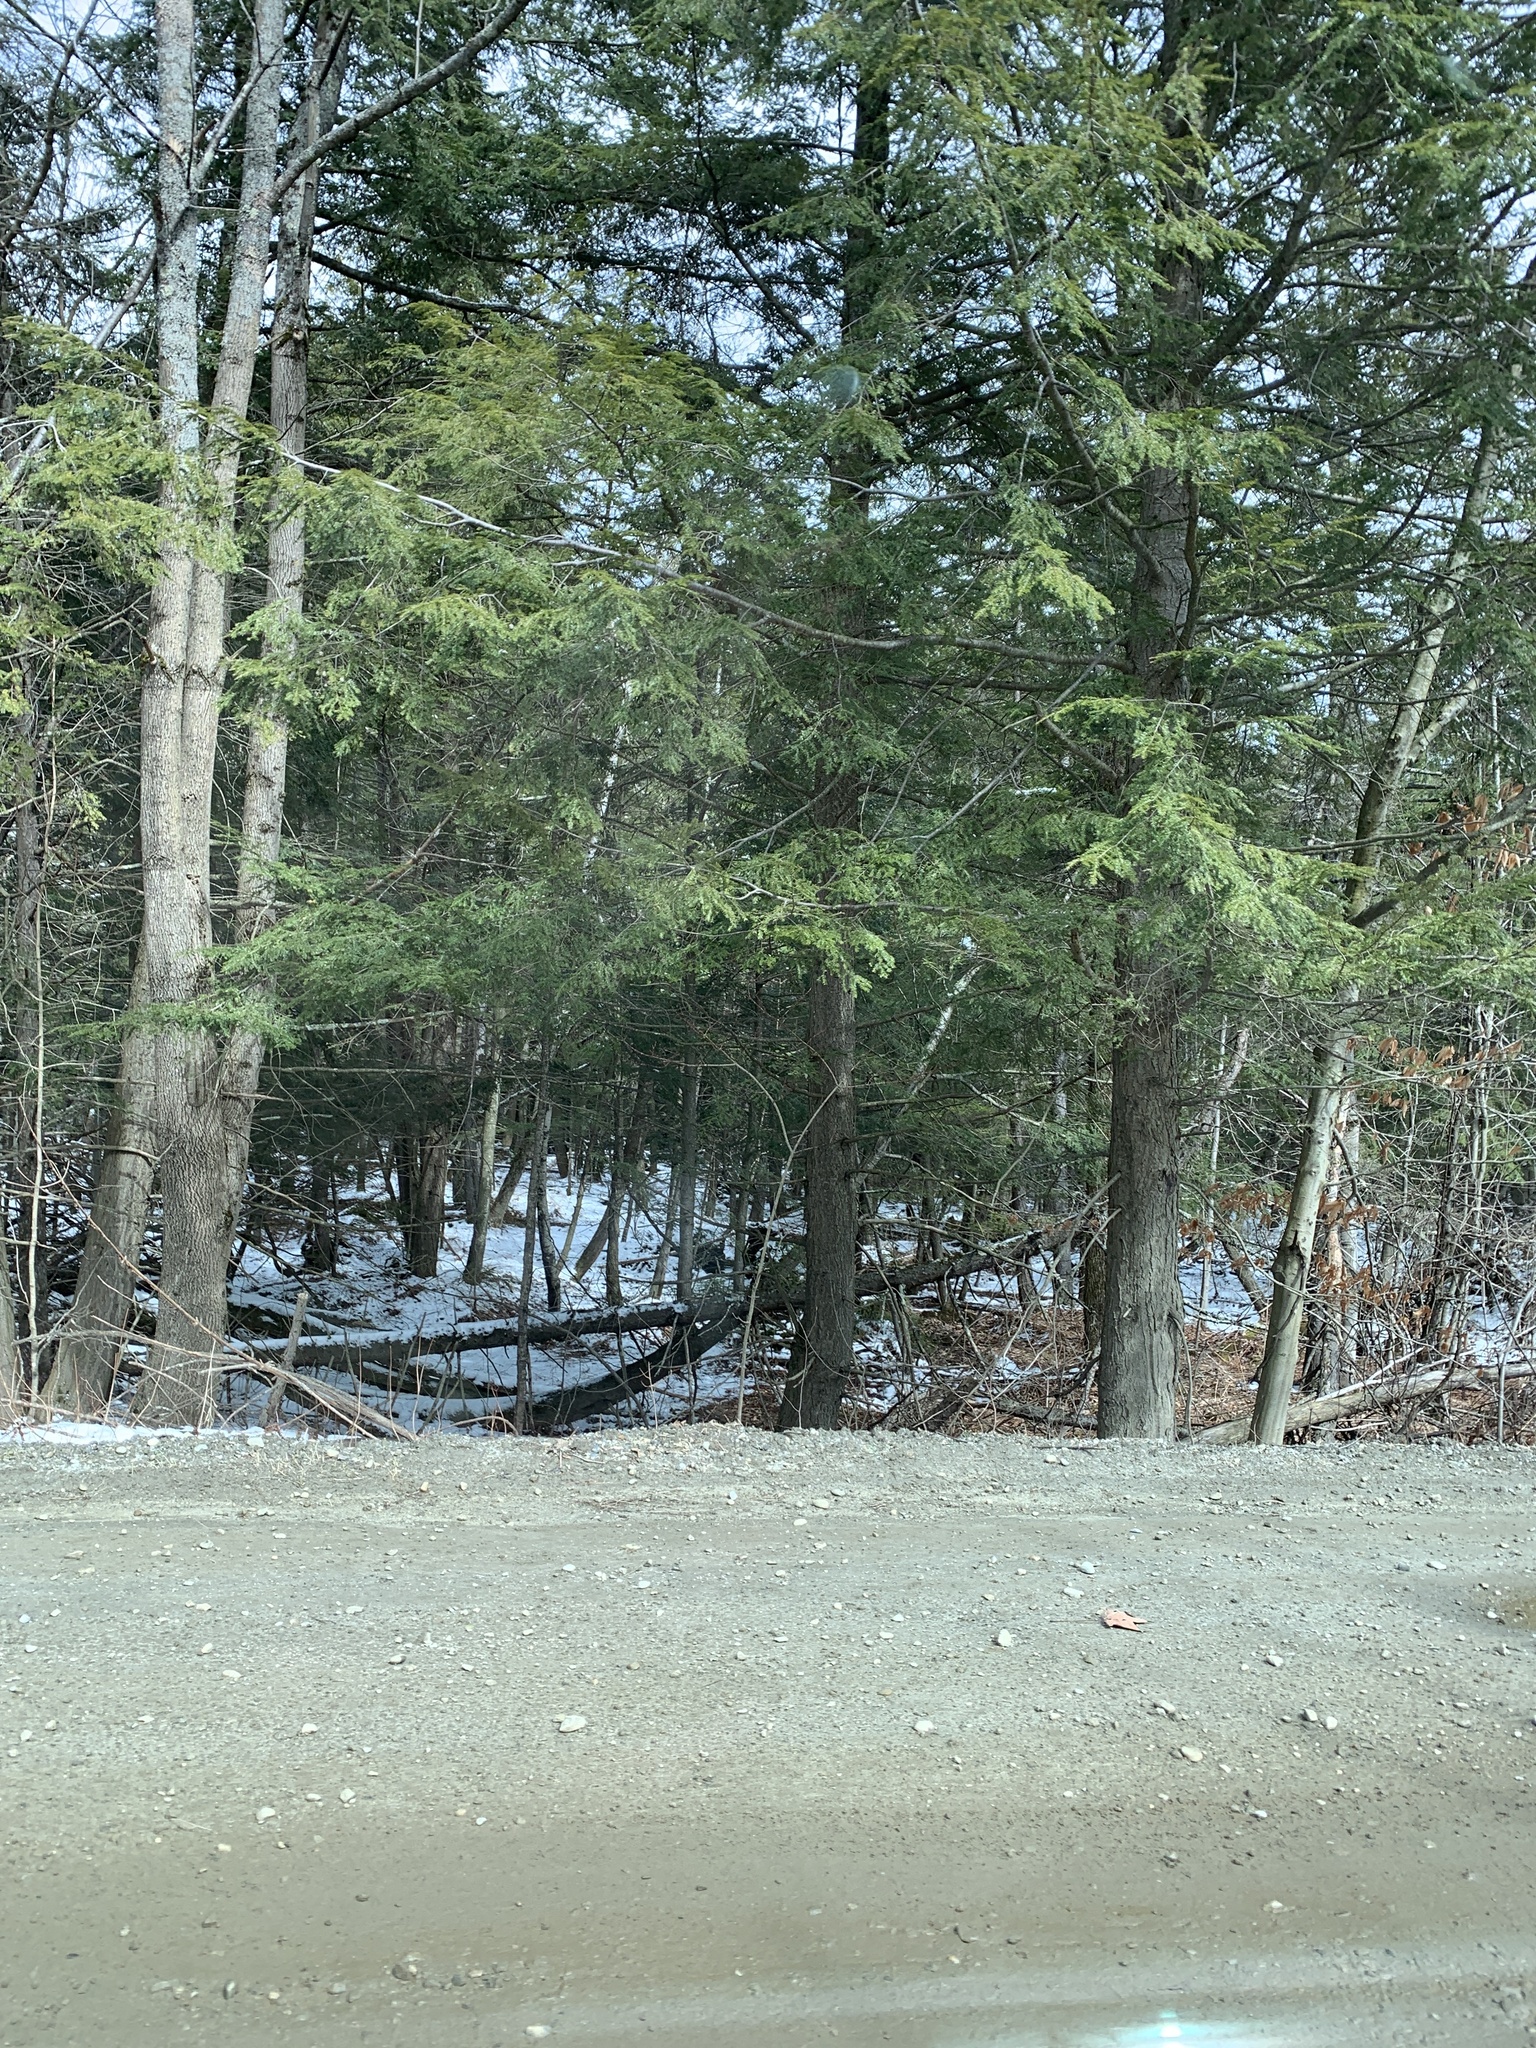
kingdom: Plantae
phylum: Tracheophyta
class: Pinopsida
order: Pinales
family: Pinaceae
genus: Tsuga
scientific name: Tsuga canadensis
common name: Eastern hemlock
